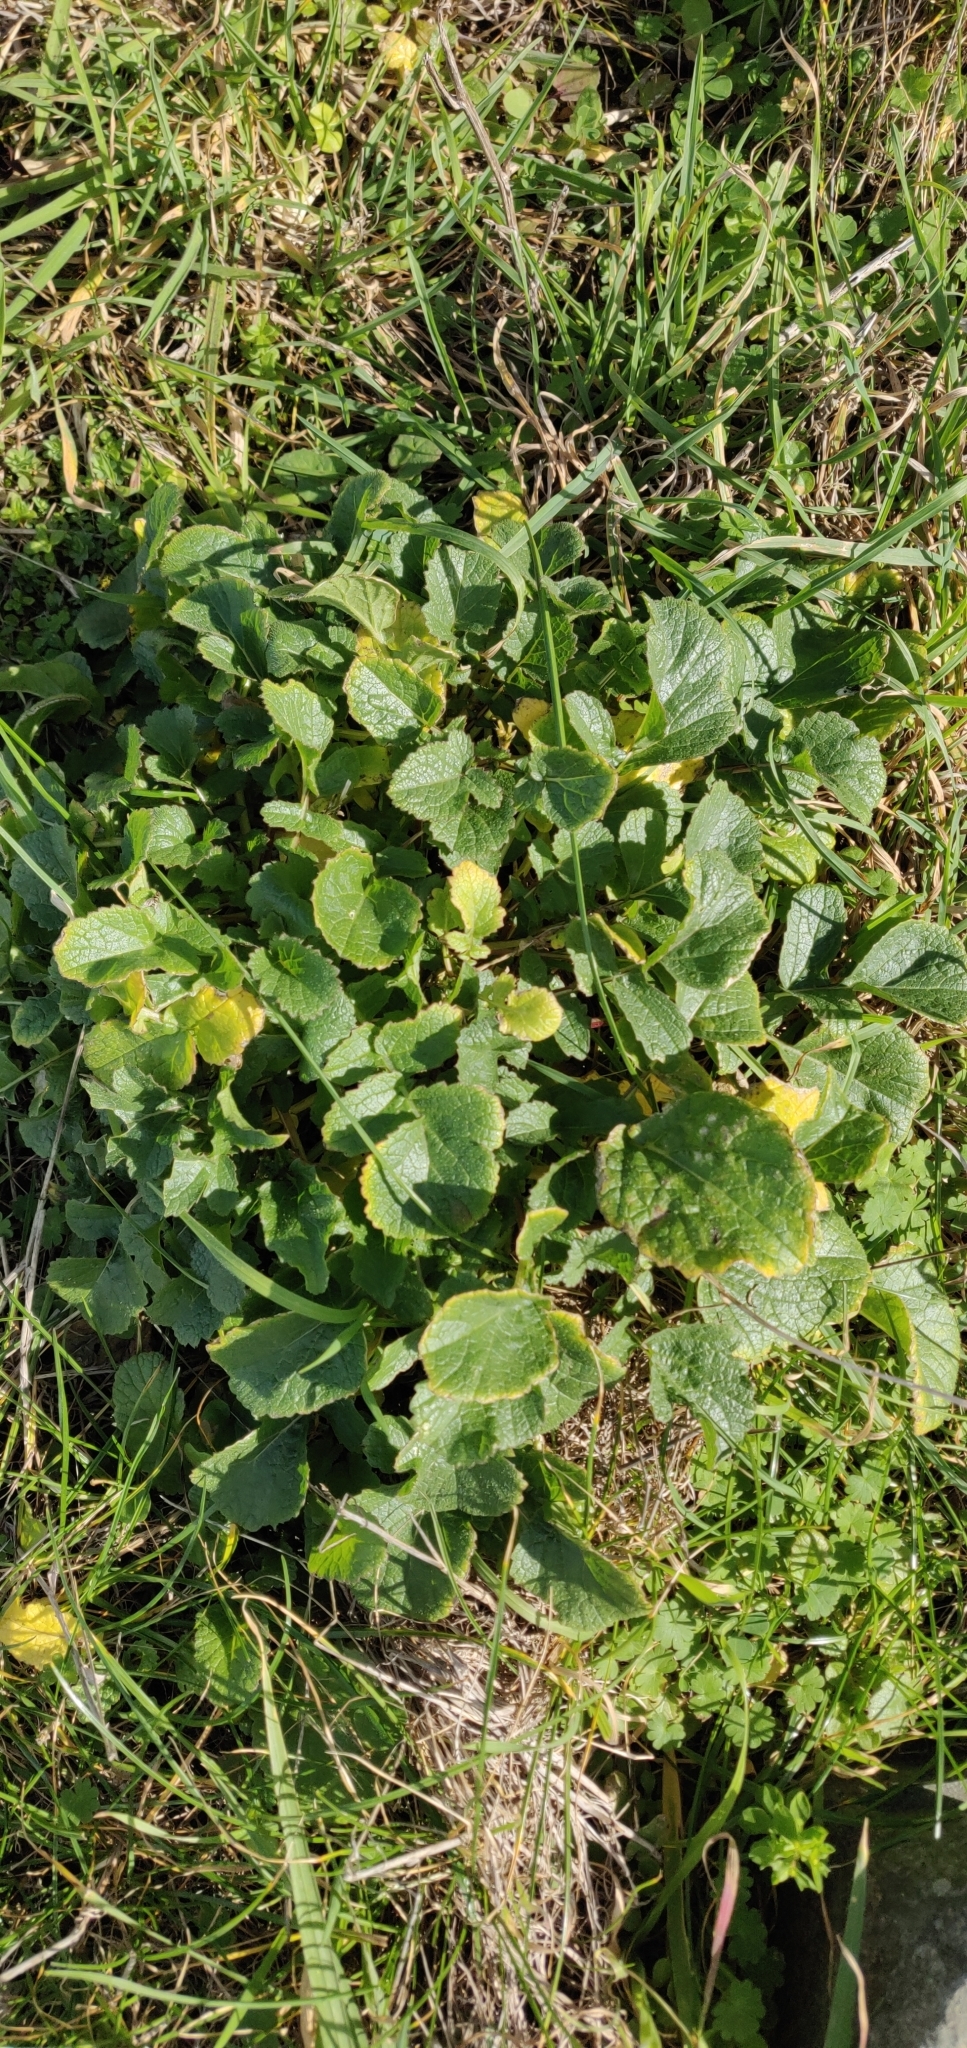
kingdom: Plantae
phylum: Tracheophyta
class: Magnoliopsida
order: Brassicales
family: Brassicaceae
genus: Raphanus
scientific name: Raphanus raphanistrum
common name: Wild radish
